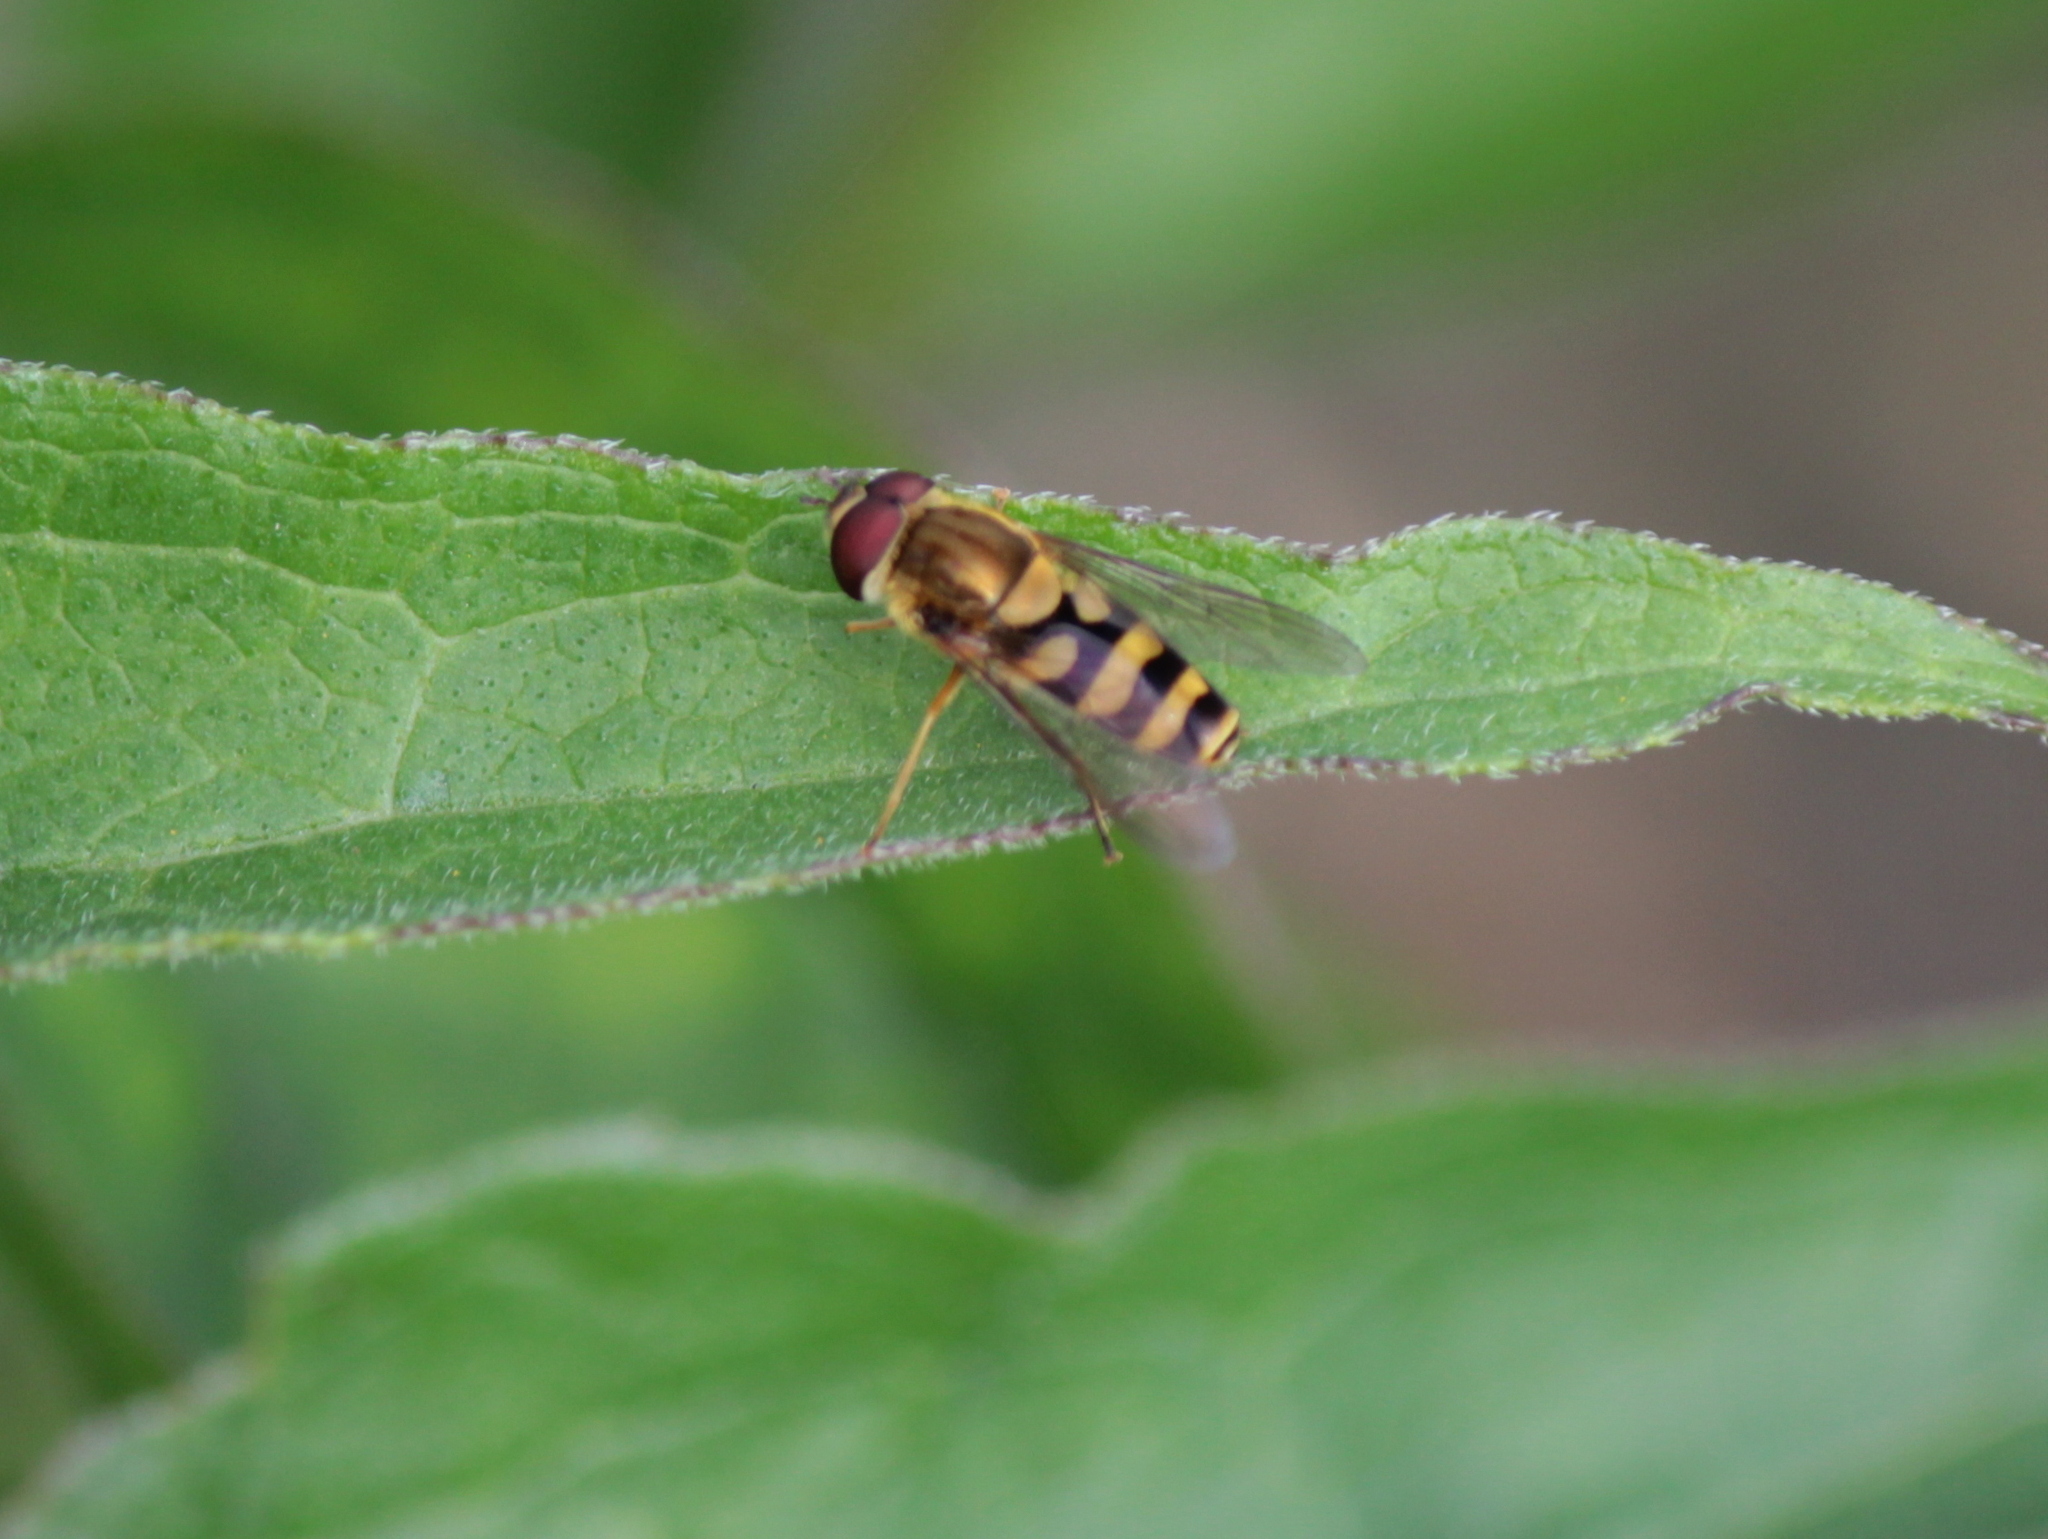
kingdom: Animalia
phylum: Arthropoda
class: Insecta
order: Diptera
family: Syrphidae
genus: Syrphus
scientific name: Syrphus
